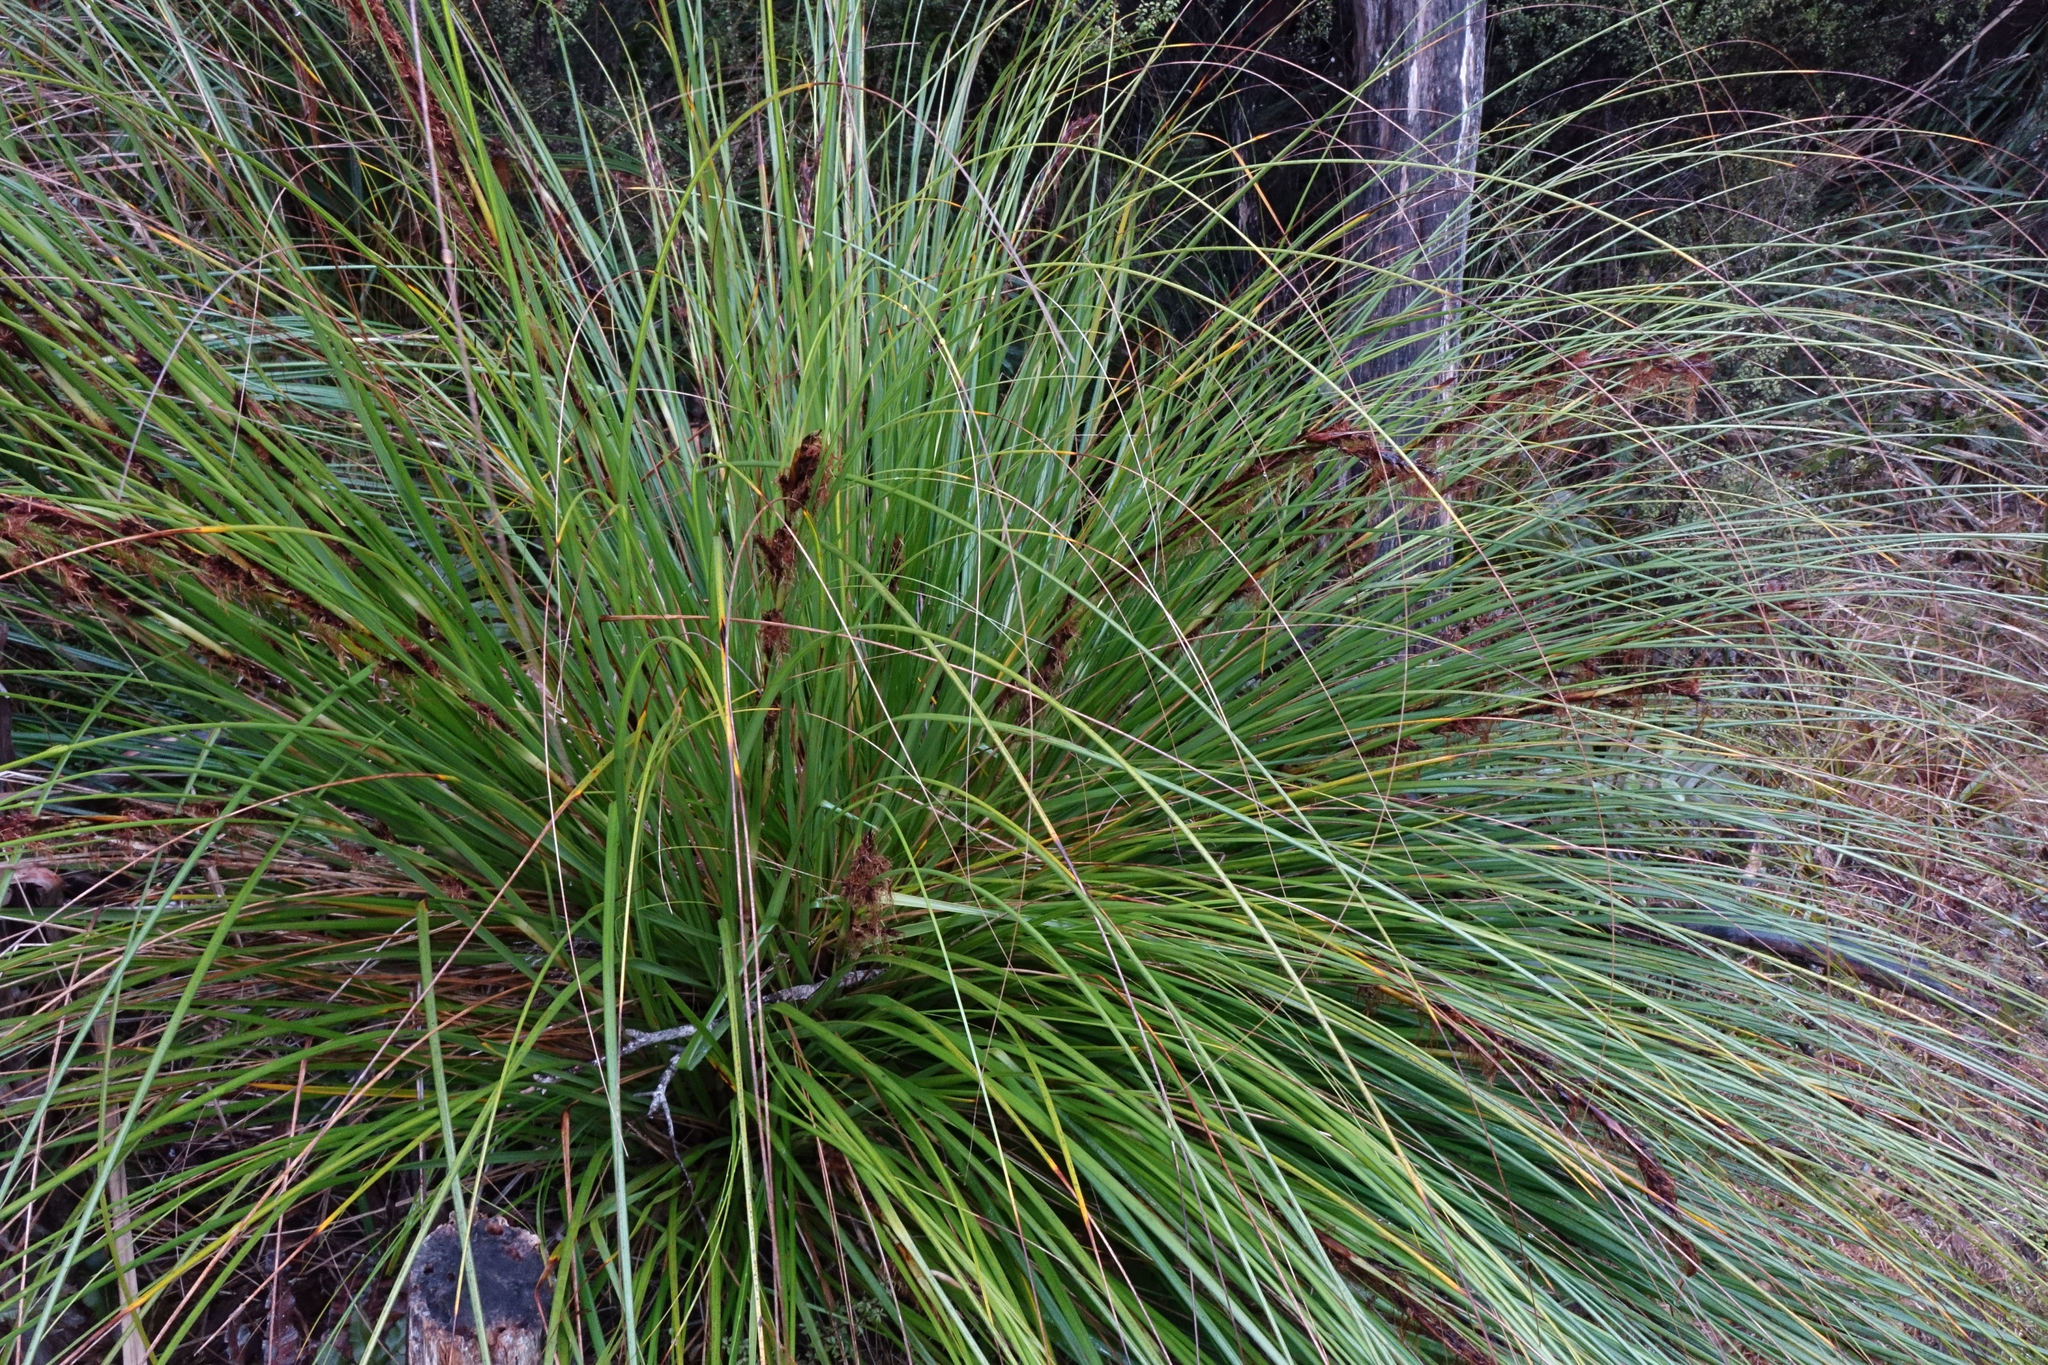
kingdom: Plantae
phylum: Tracheophyta
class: Liliopsida
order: Poales
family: Cyperaceae
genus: Gahnia
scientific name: Gahnia procera
